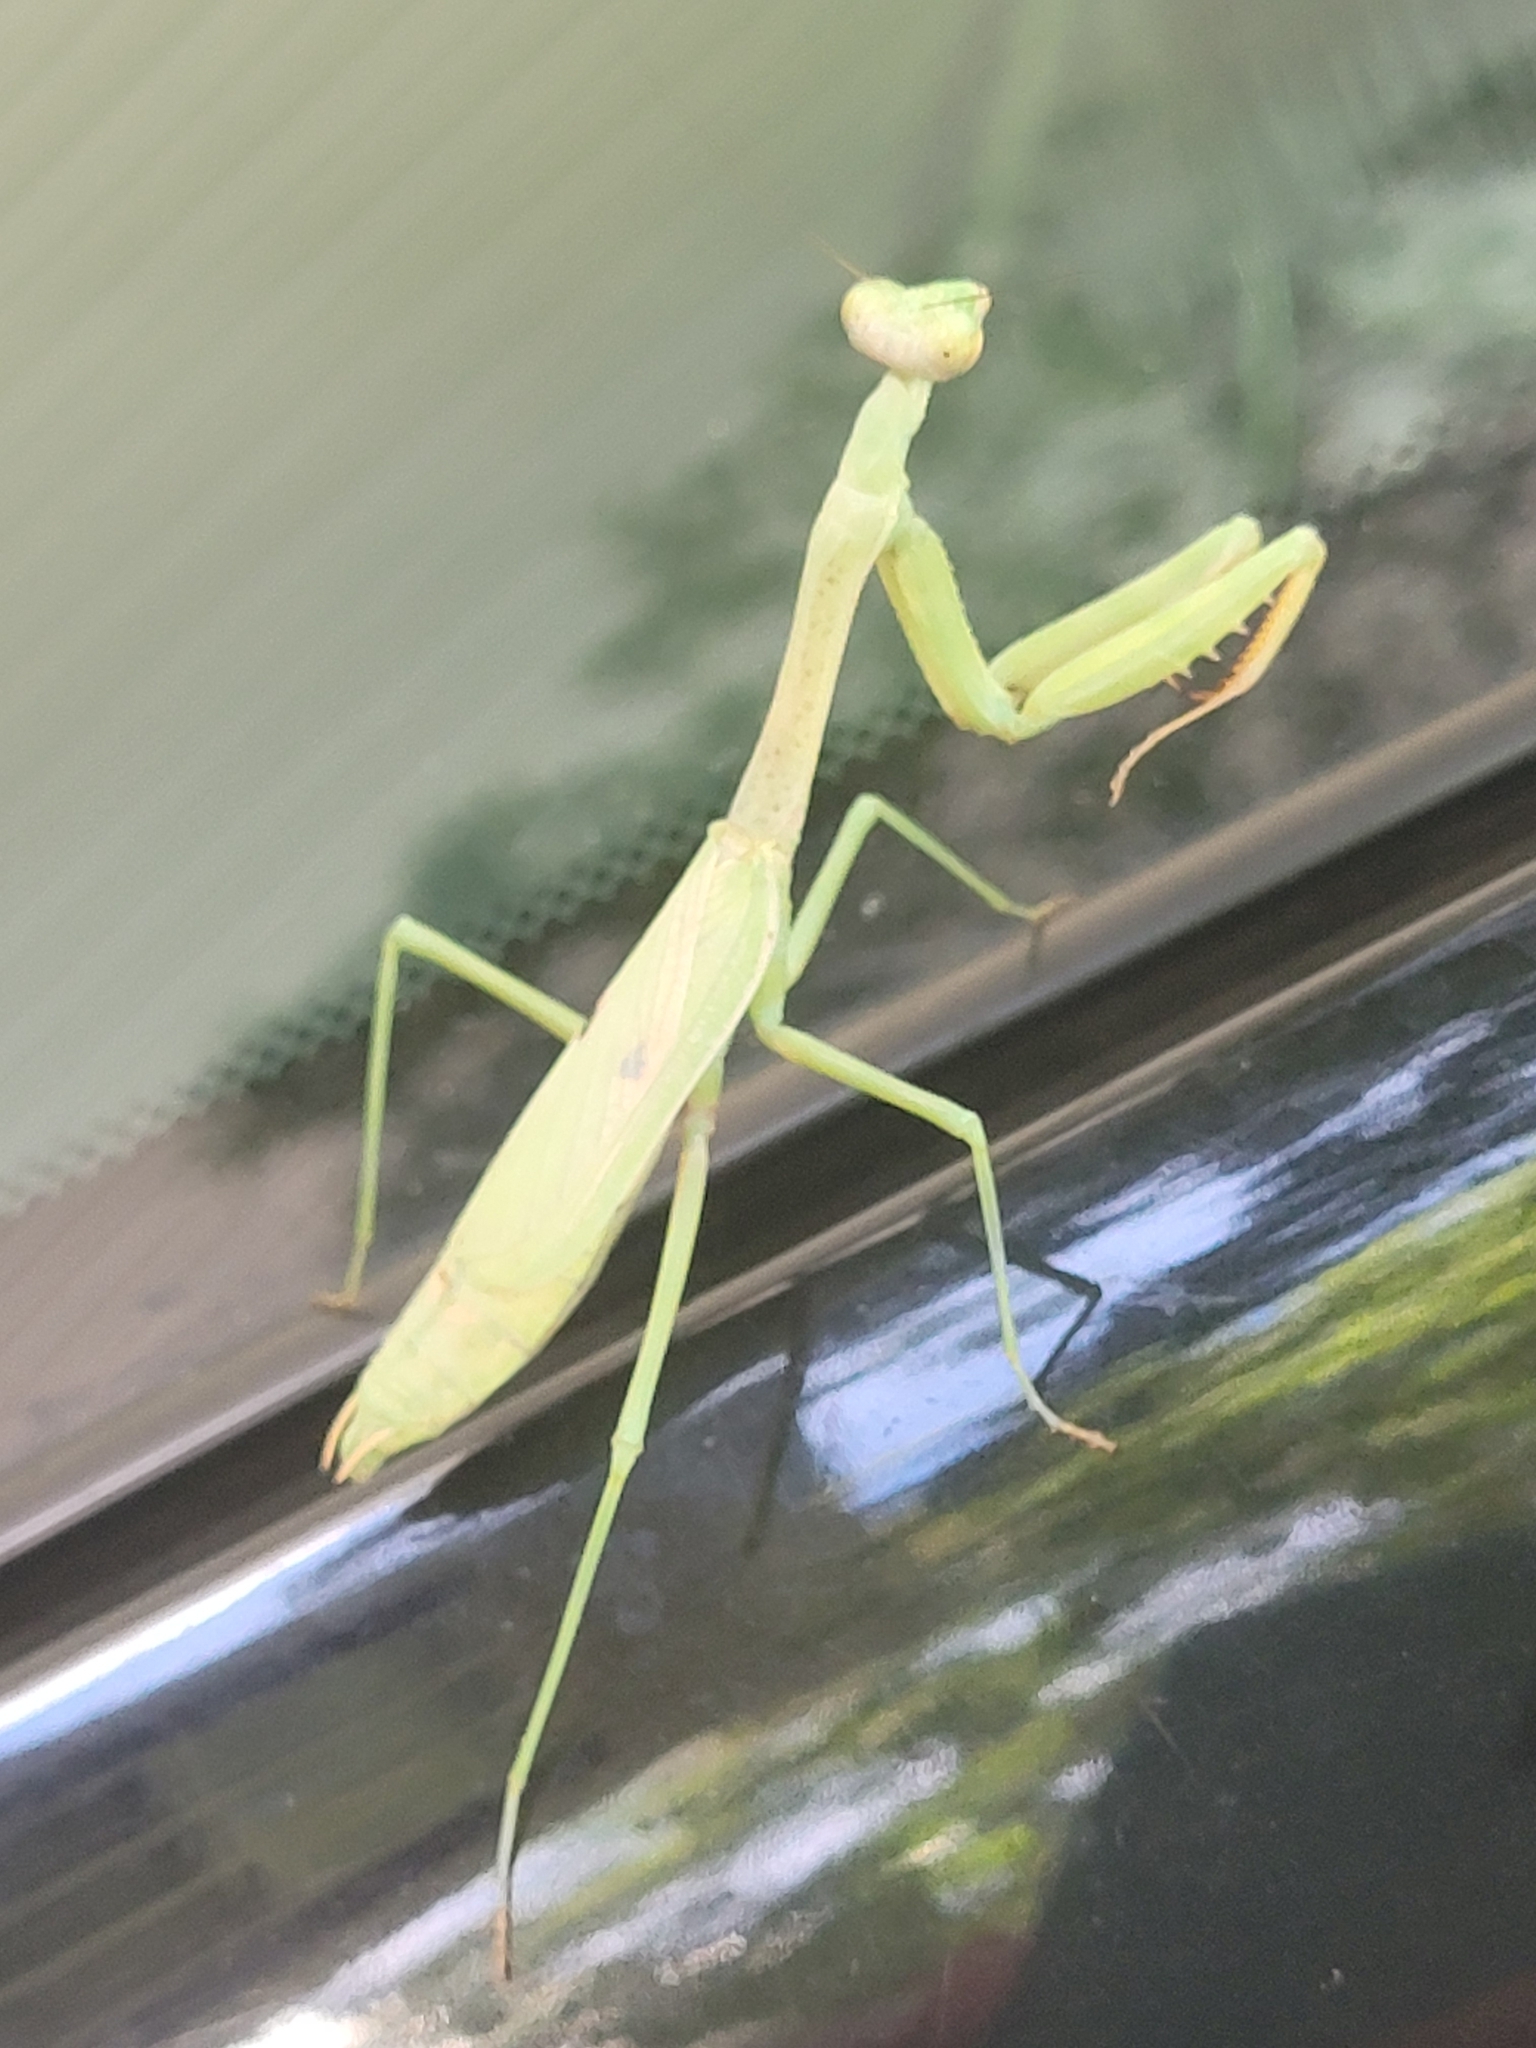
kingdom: Animalia
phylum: Arthropoda
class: Insecta
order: Mantodea
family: Mantidae
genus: Stagmomantis
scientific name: Stagmomantis carolina
